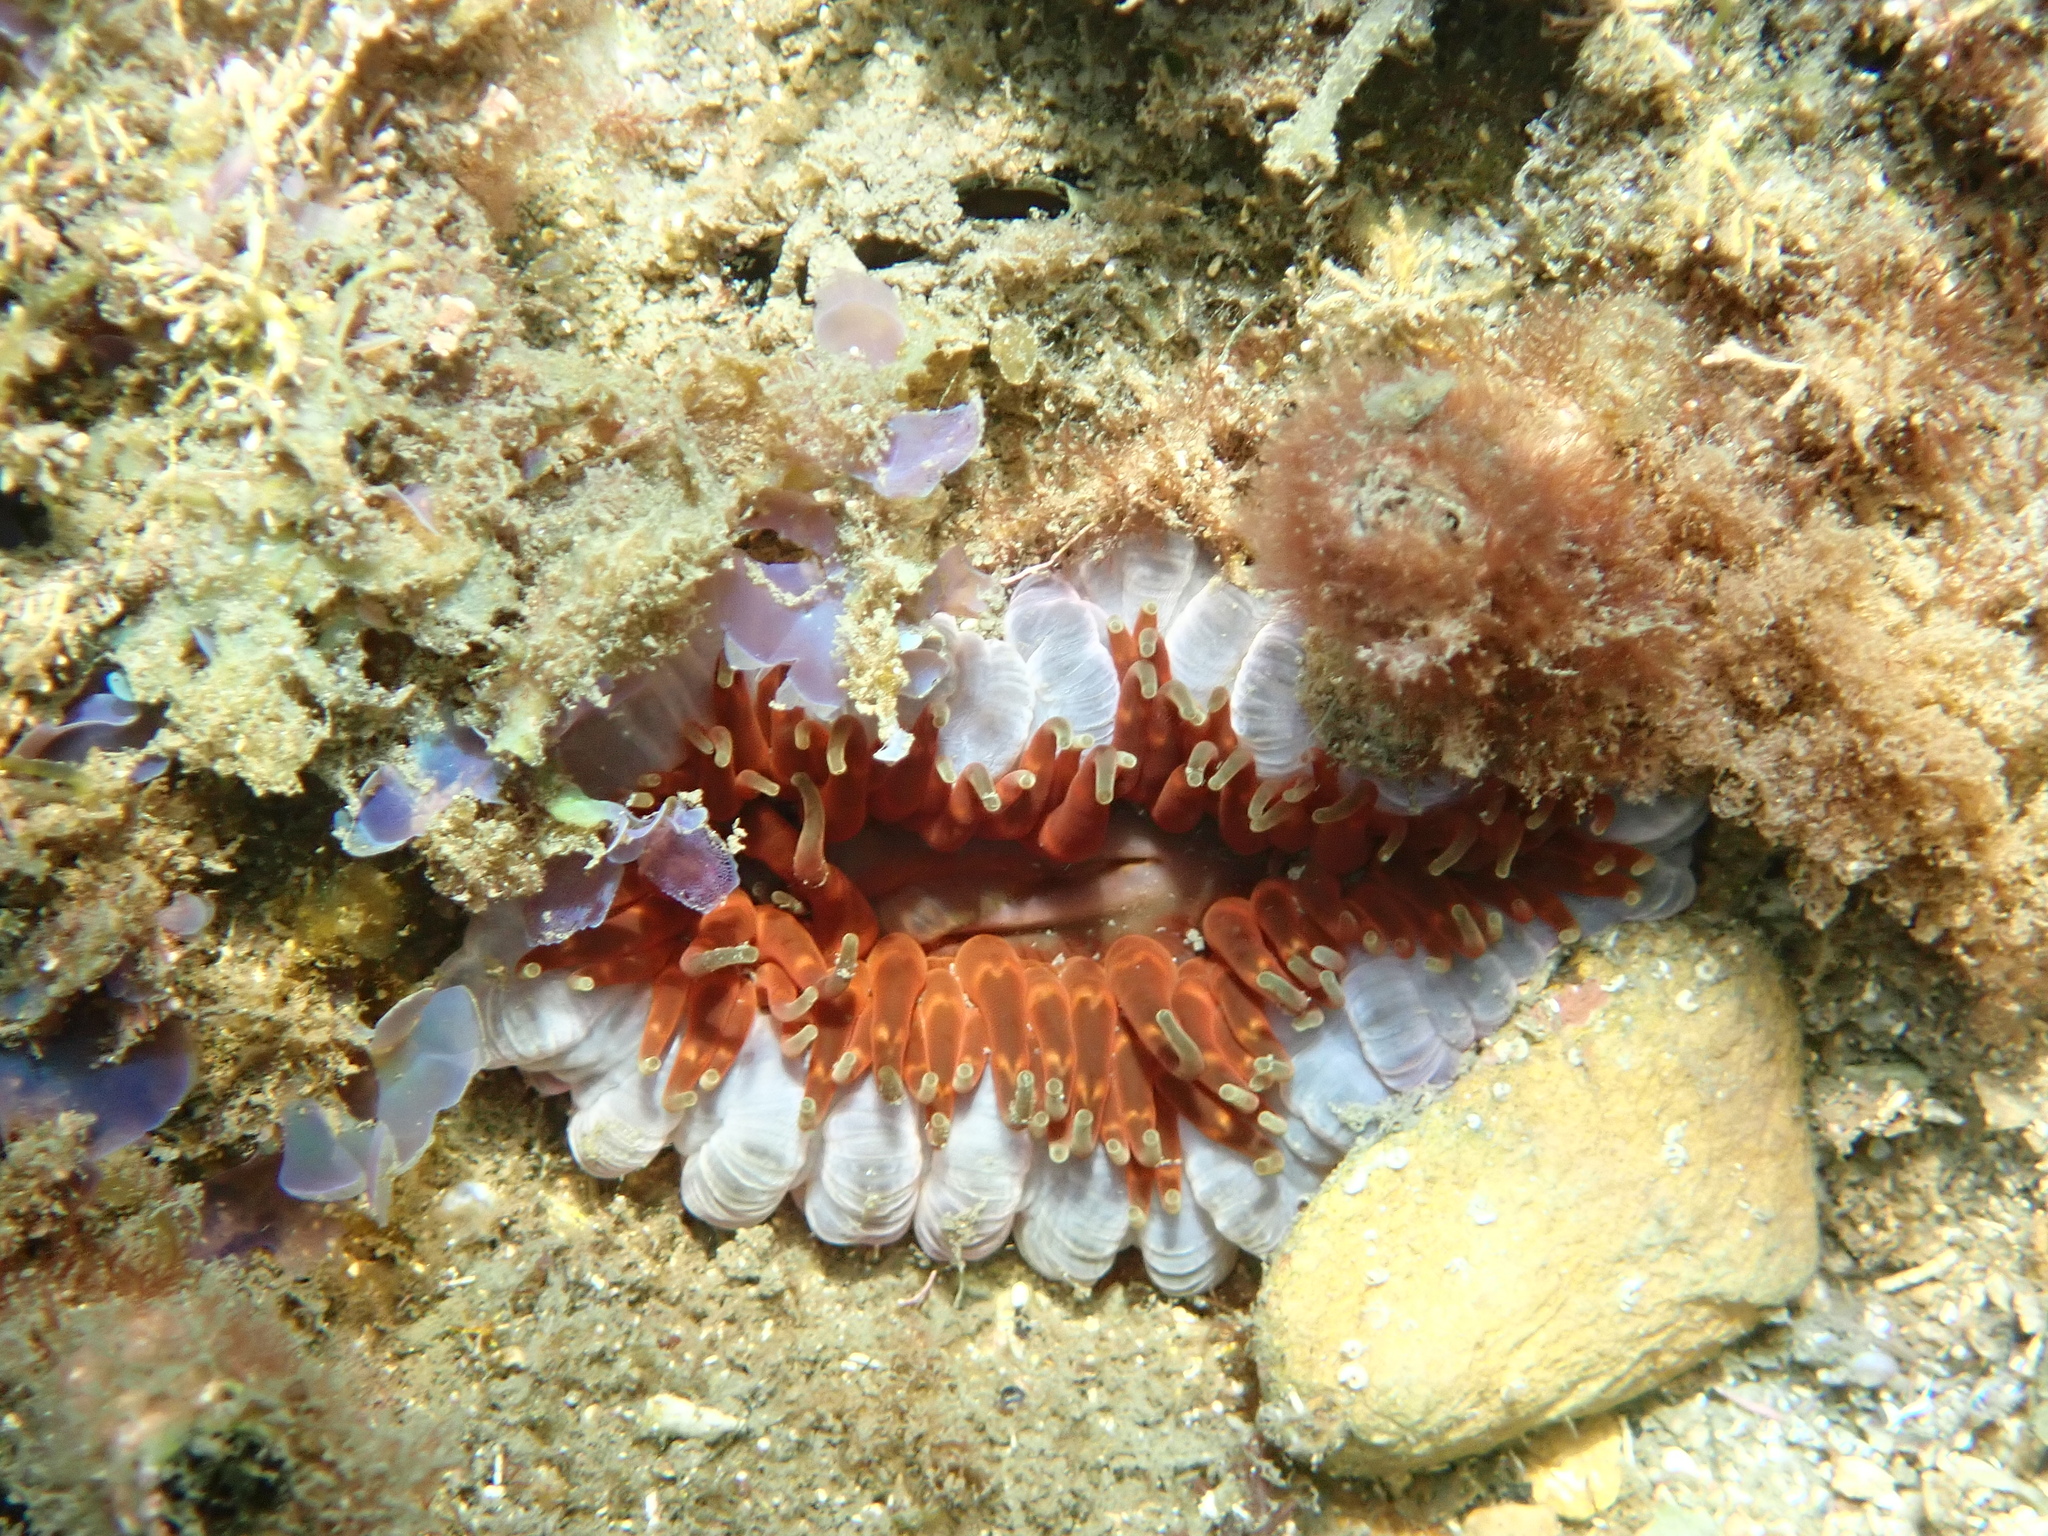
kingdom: Animalia
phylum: Cnidaria
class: Anthozoa
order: Actiniaria
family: Actiniidae
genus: Phlyctenanthus
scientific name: Phlyctenanthus australis
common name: Southern anemone
